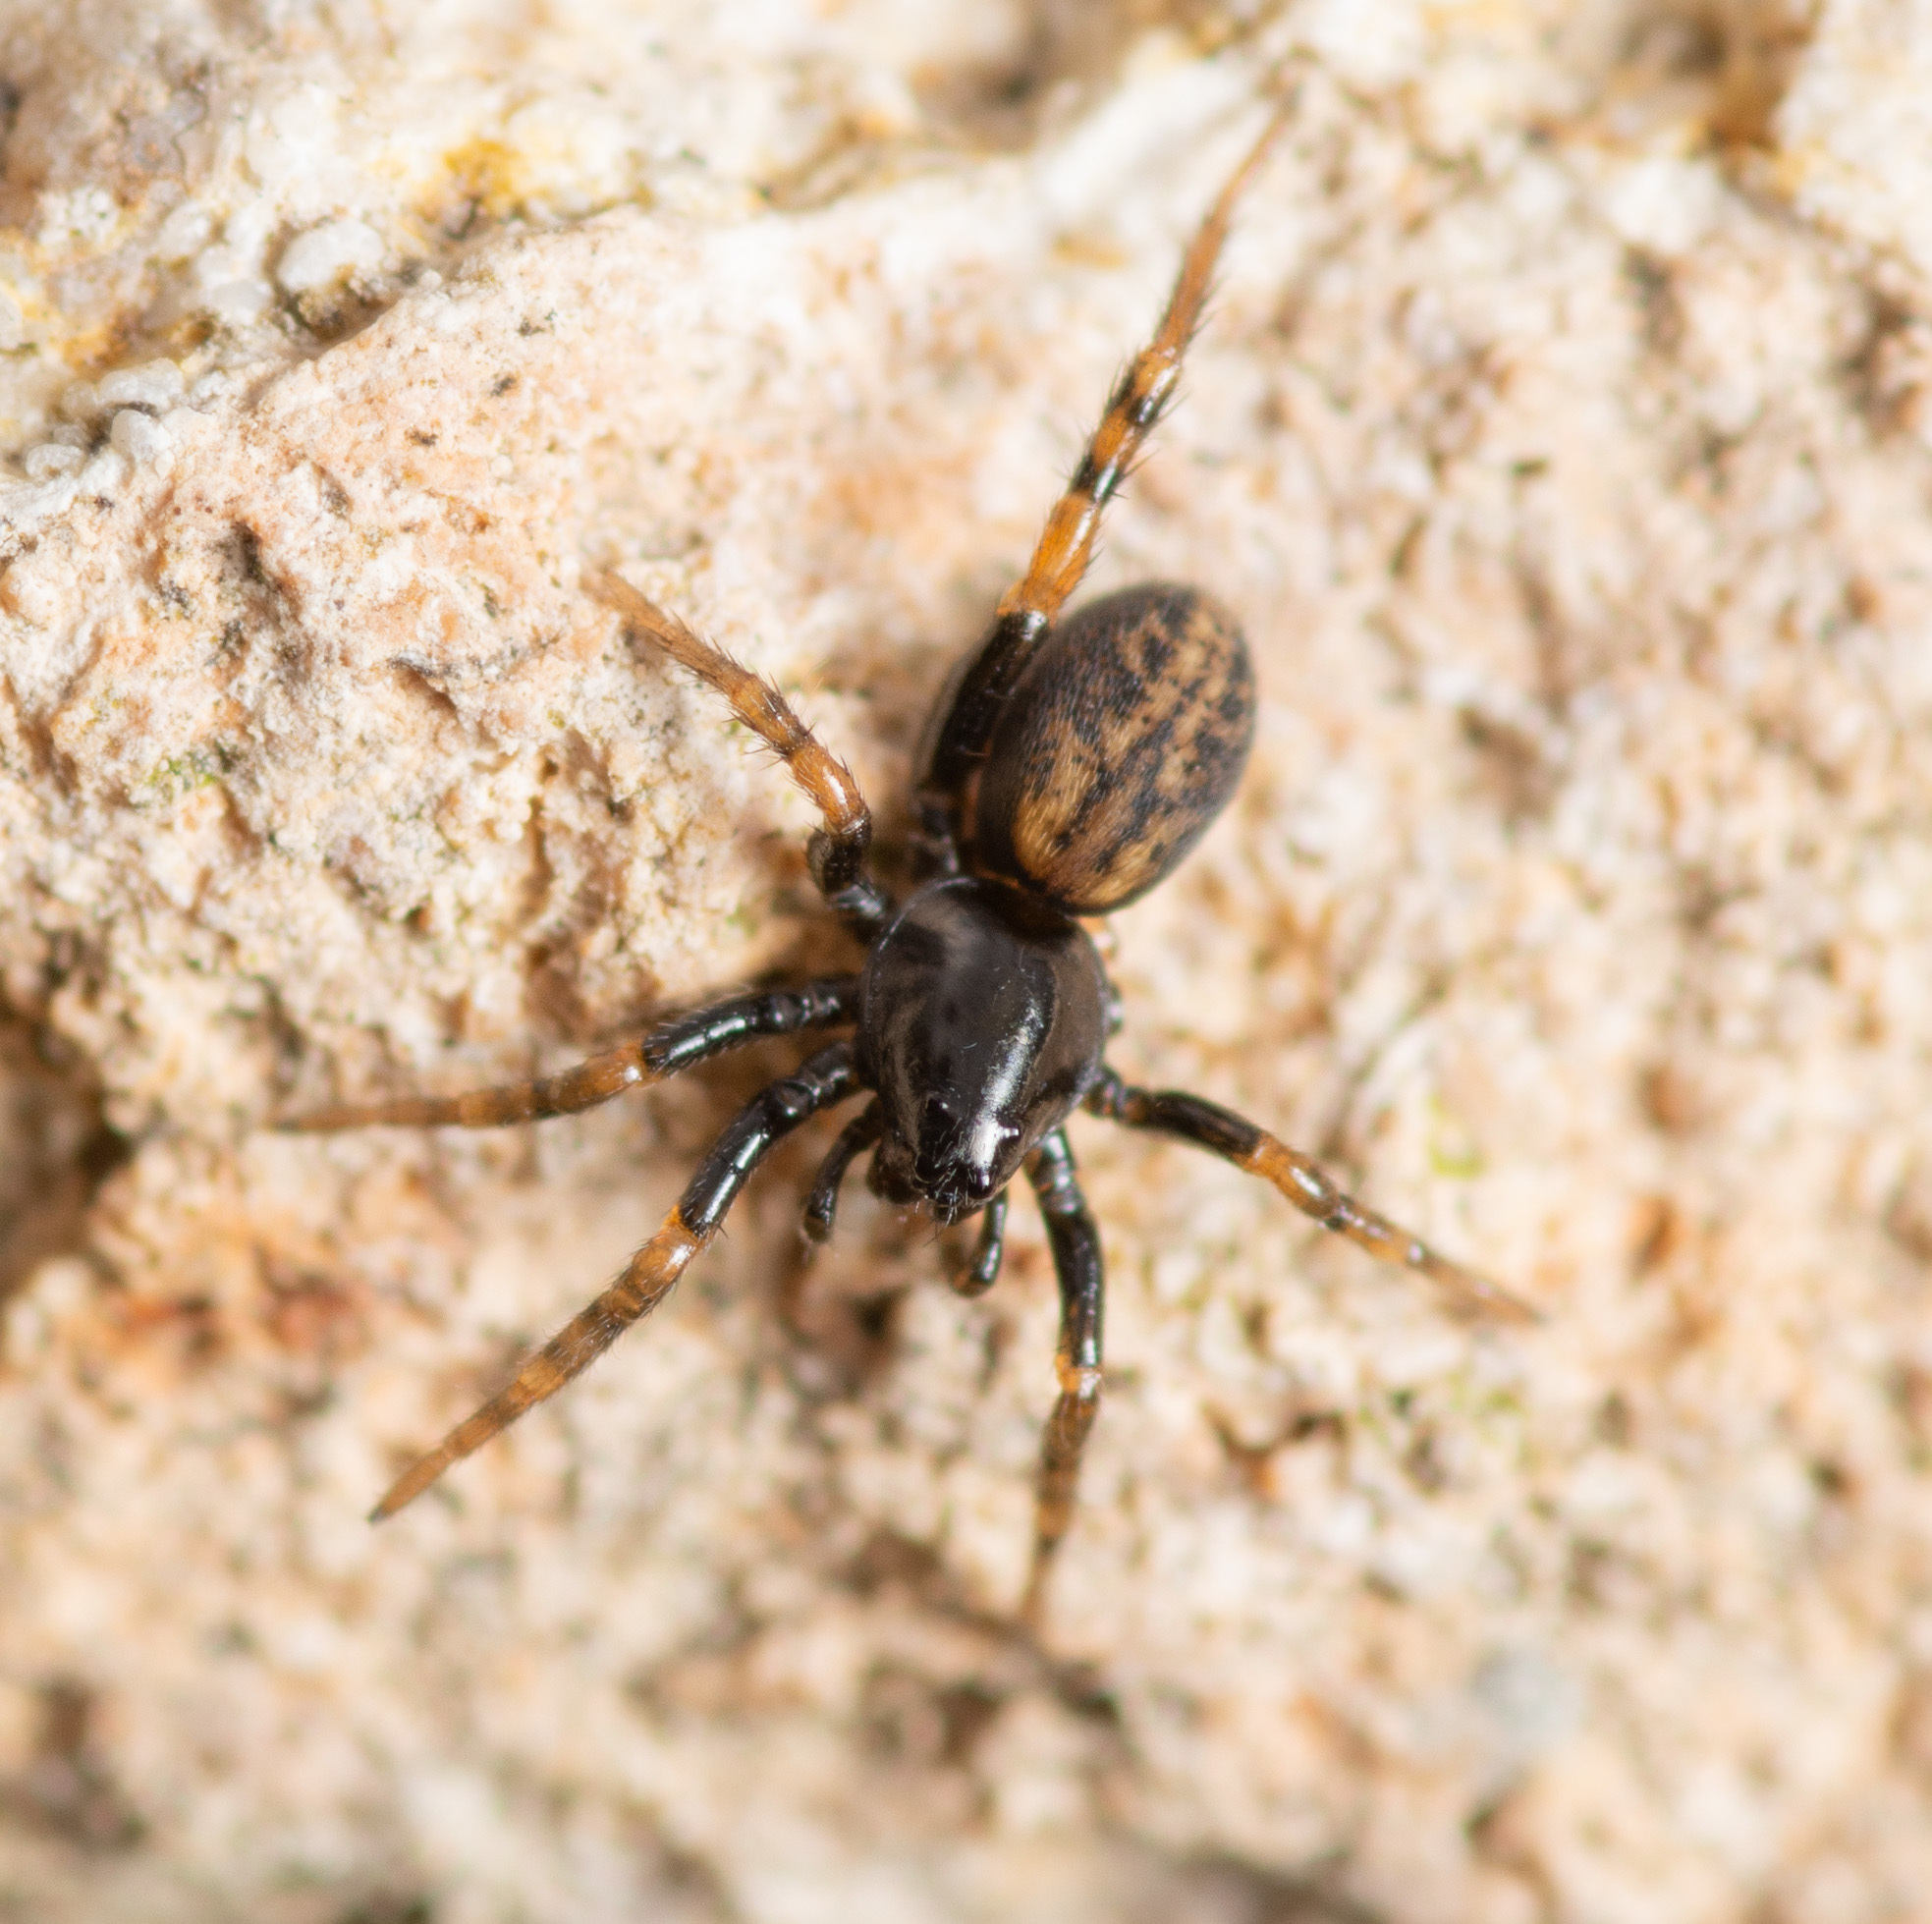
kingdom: Animalia
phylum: Arthropoda
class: Arachnida
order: Araneae
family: Lycosidae
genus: Allocosa
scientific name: Allocosa funerea
